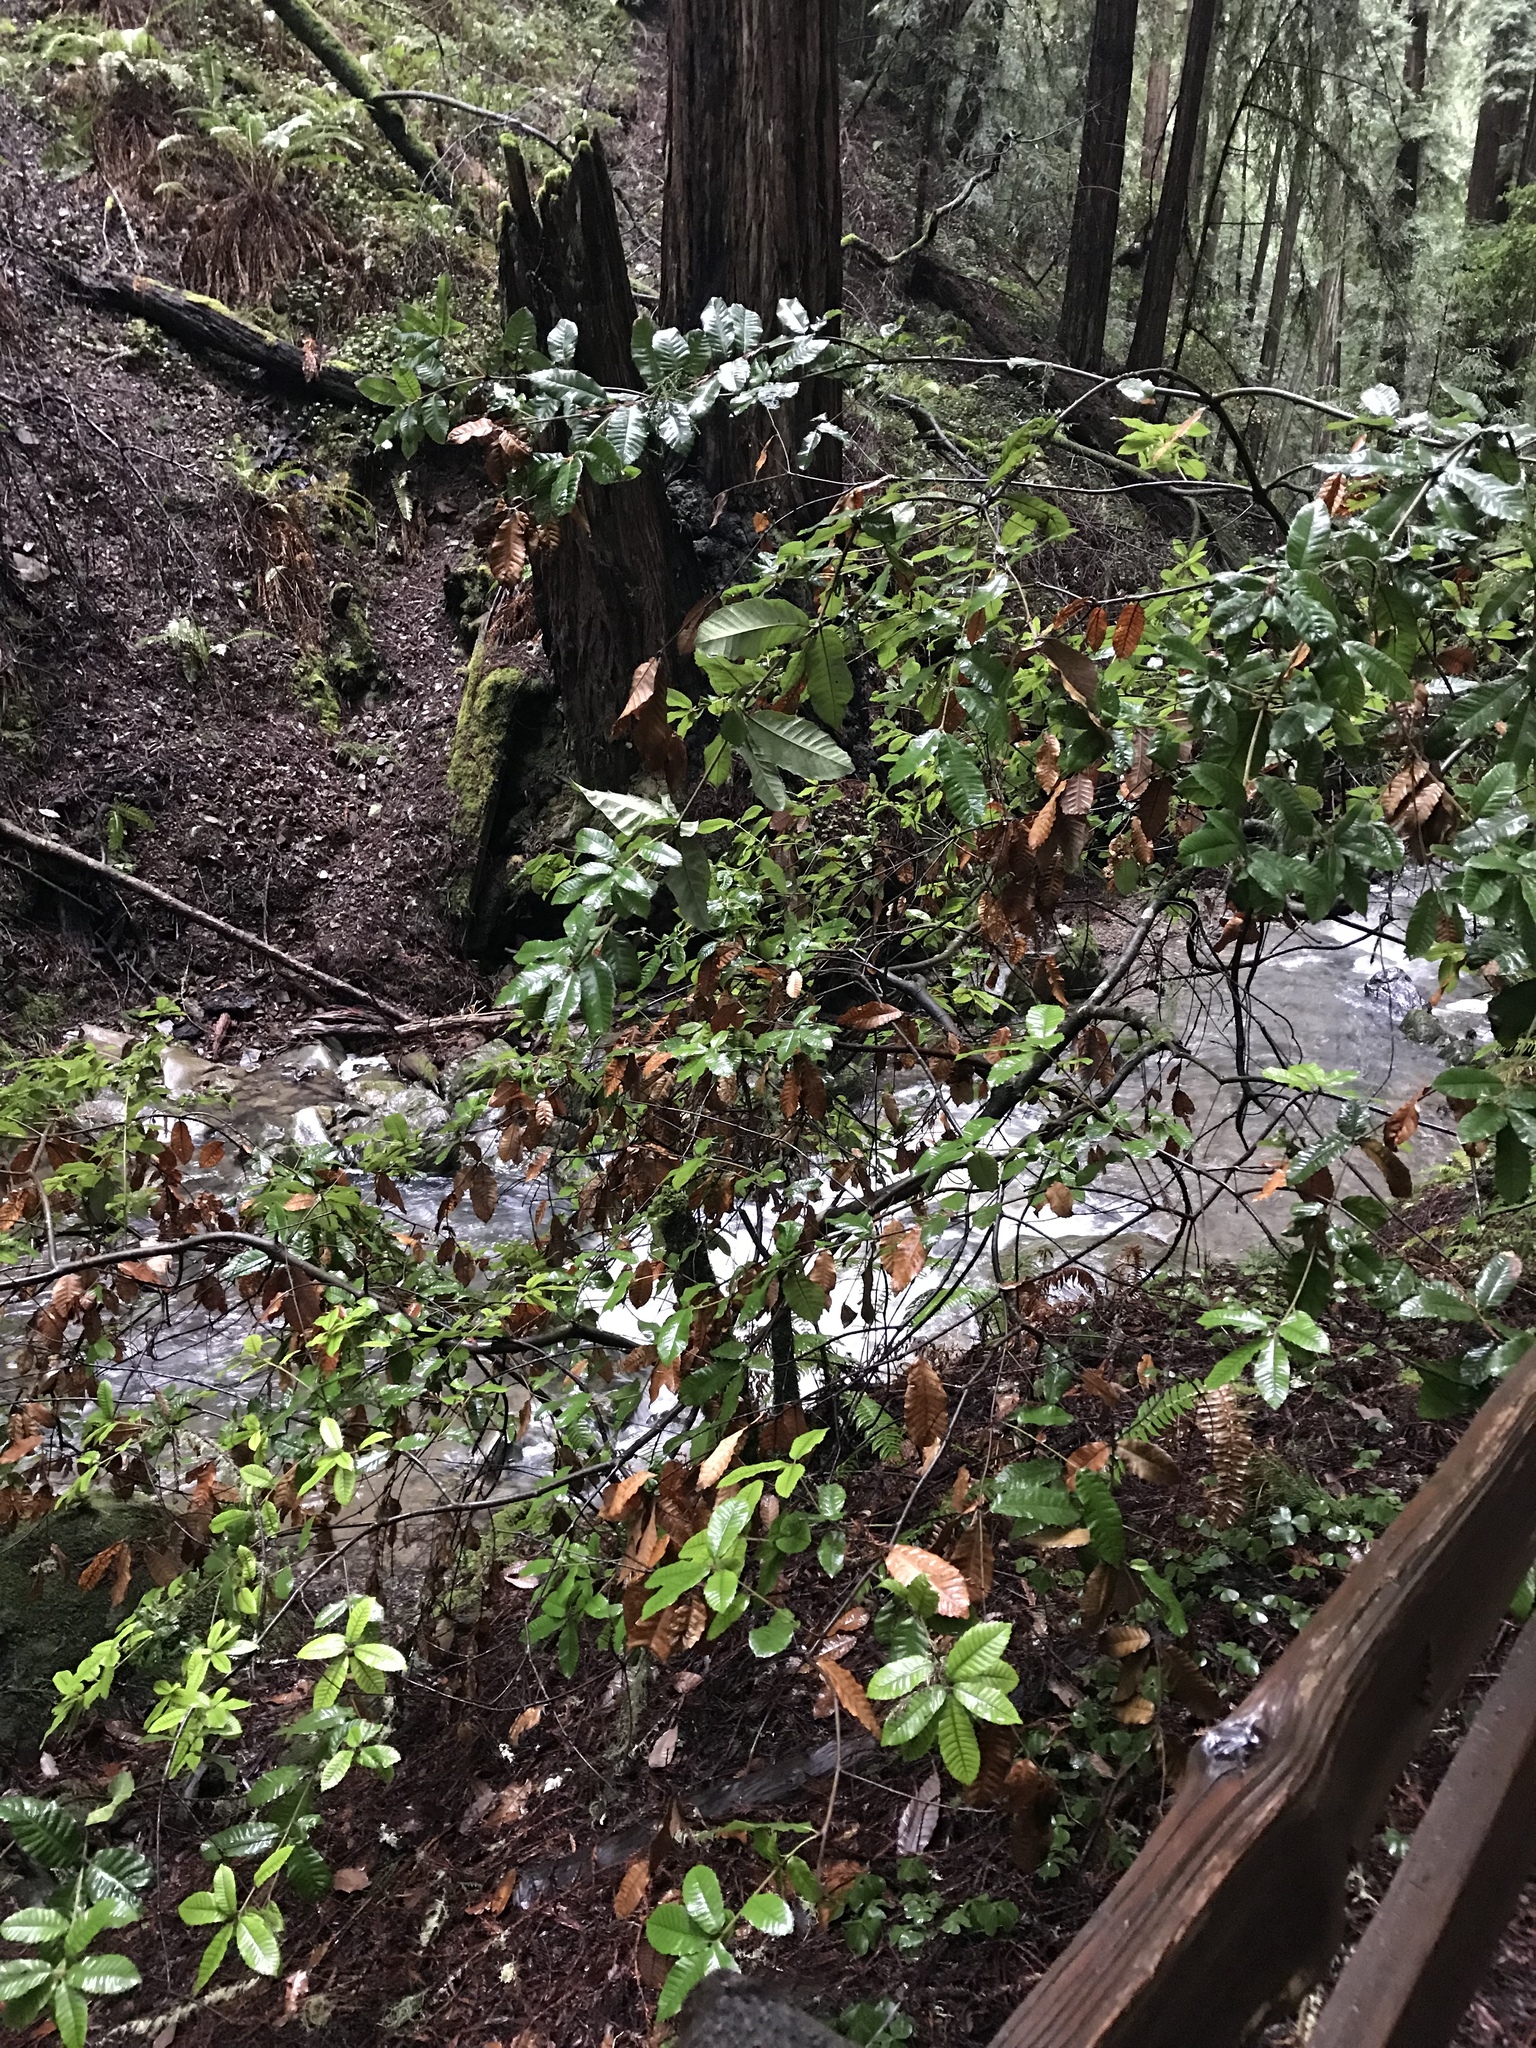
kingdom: Plantae
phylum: Tracheophyta
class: Magnoliopsida
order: Fagales
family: Fagaceae
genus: Notholithocarpus
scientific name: Notholithocarpus densiflorus
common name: Tan bark oak
